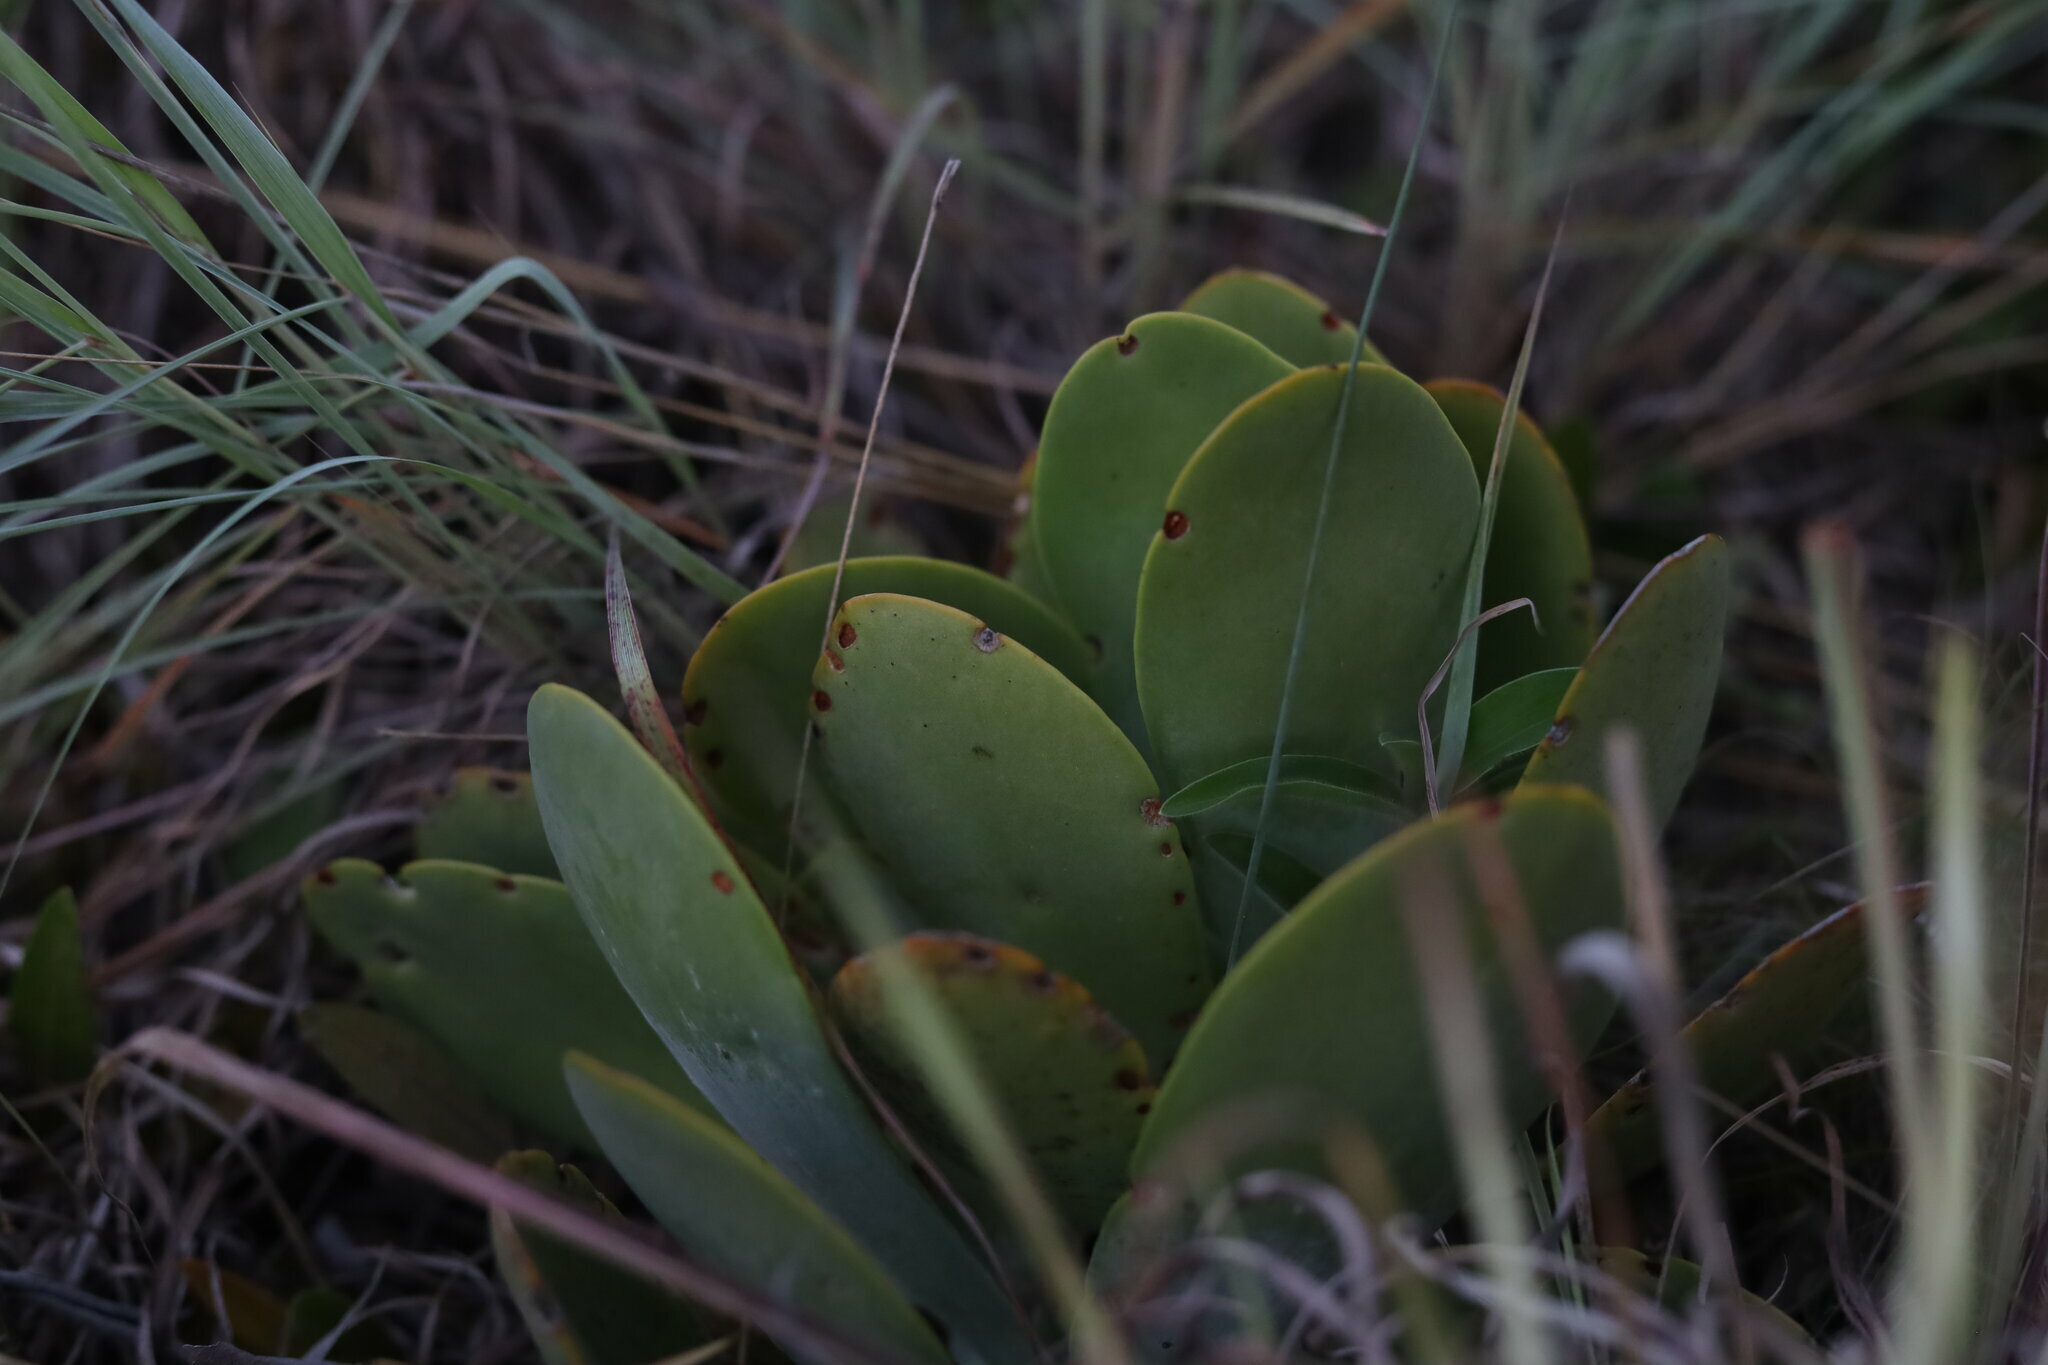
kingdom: Plantae
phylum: Tracheophyta
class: Magnoliopsida
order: Saxifragales
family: Crassulaceae
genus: Kalanchoe
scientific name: Kalanchoe thyrsiflora
